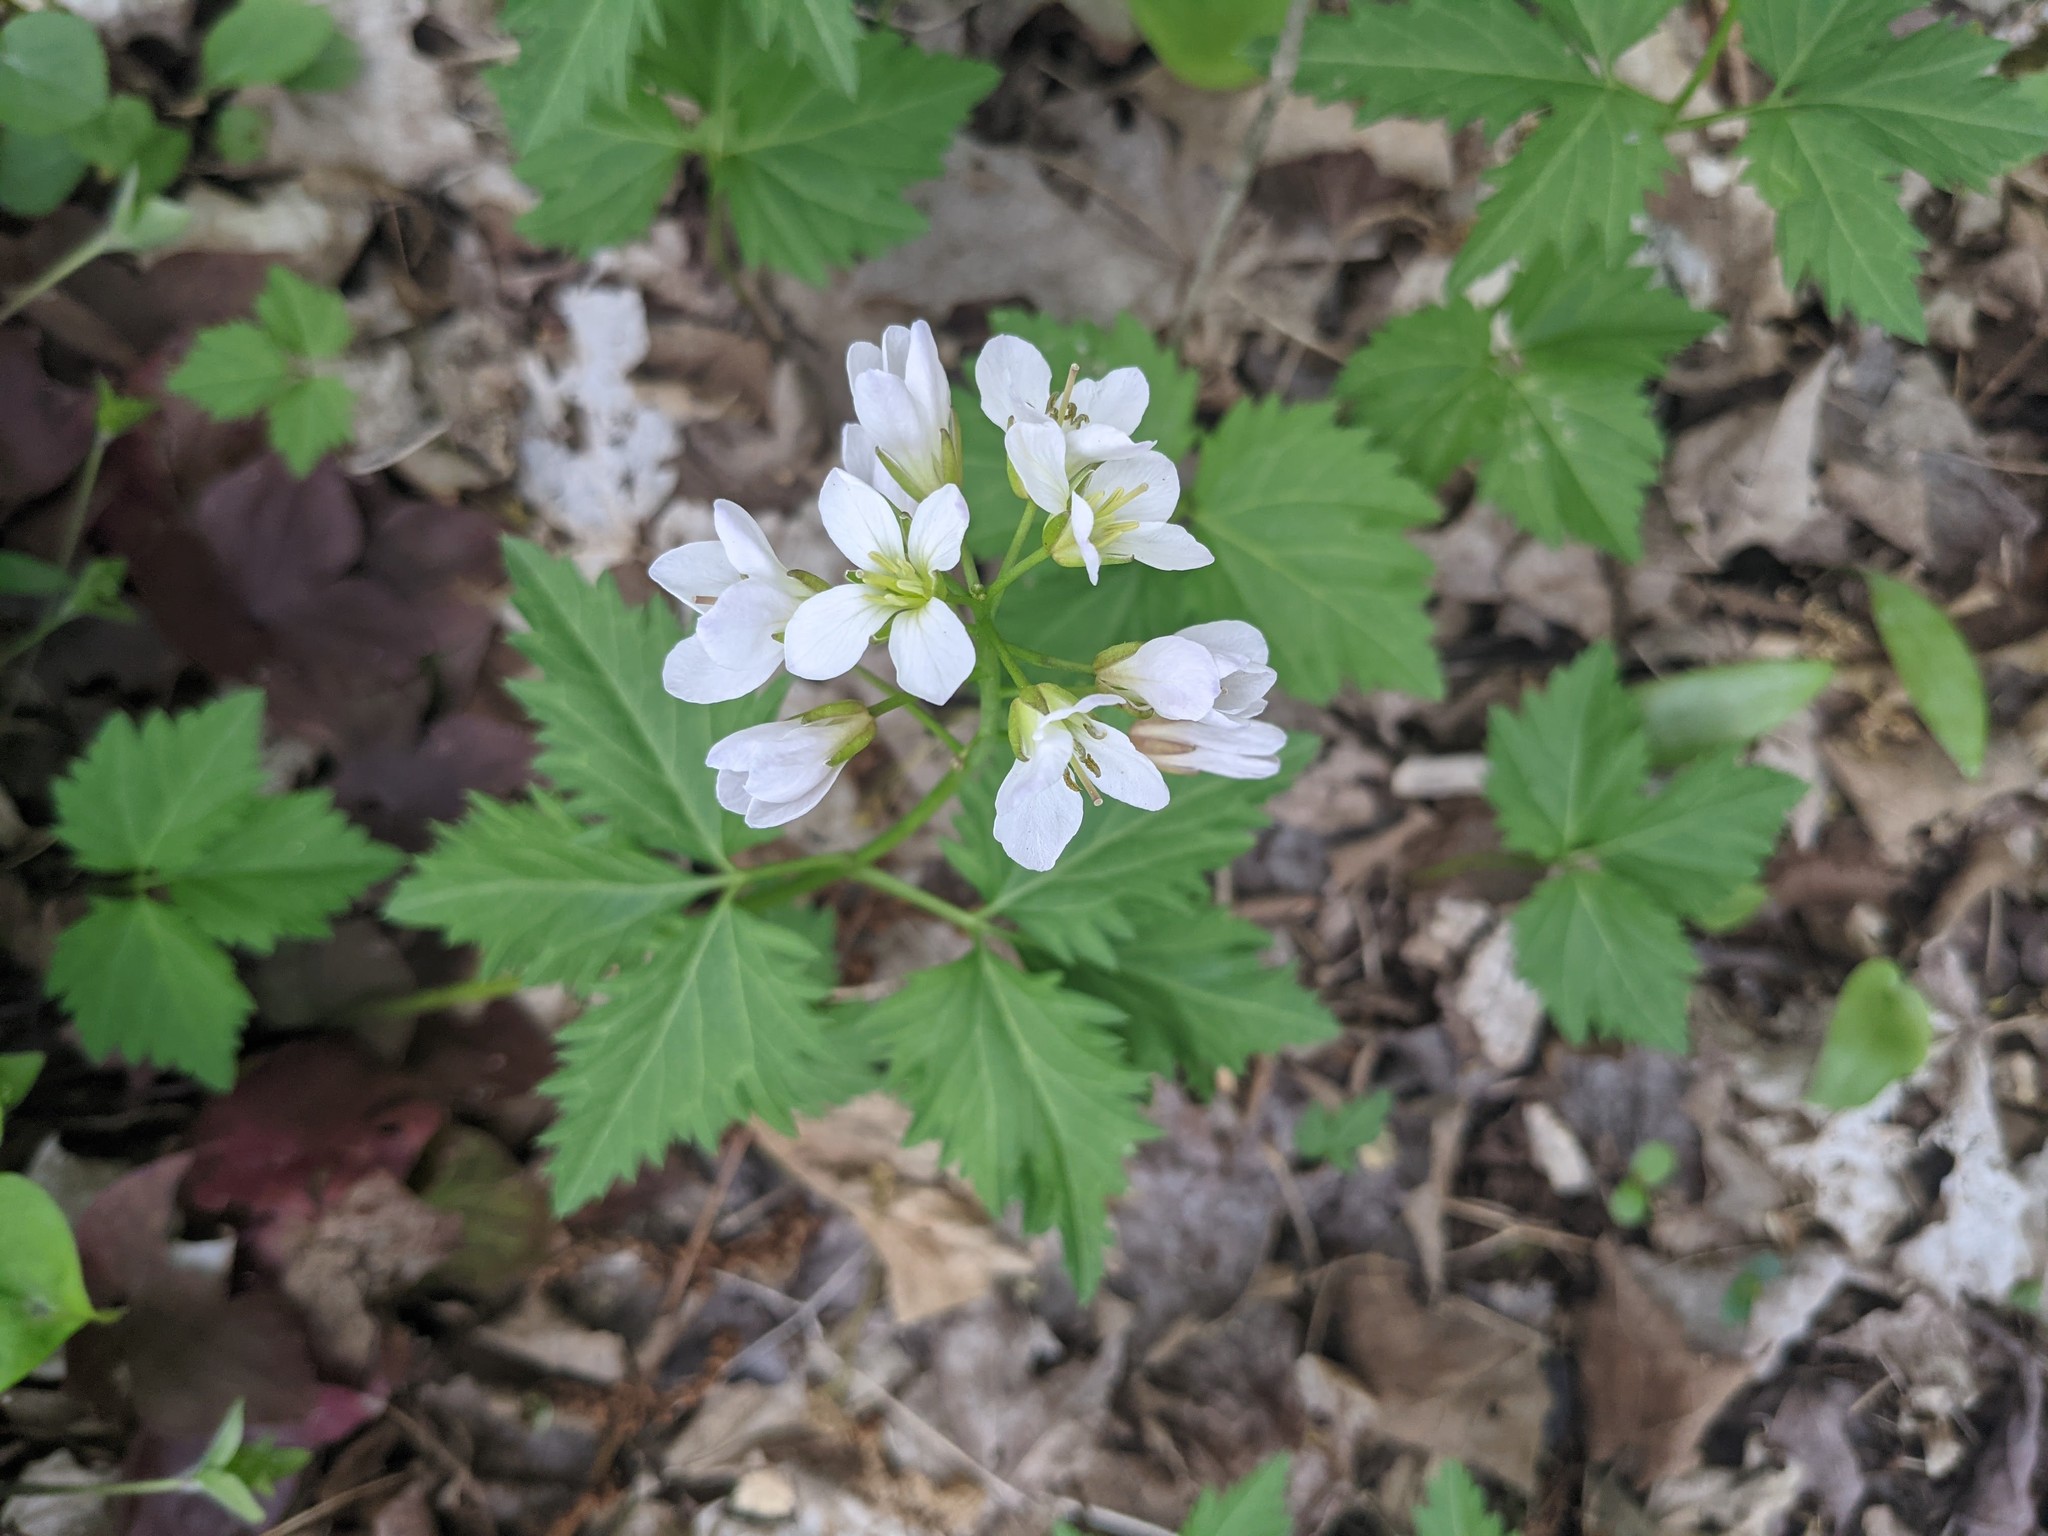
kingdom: Plantae
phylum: Tracheophyta
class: Magnoliopsida
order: Brassicales
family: Brassicaceae
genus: Cardamine
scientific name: Cardamine diphylla
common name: Broad-leaved toothwort
